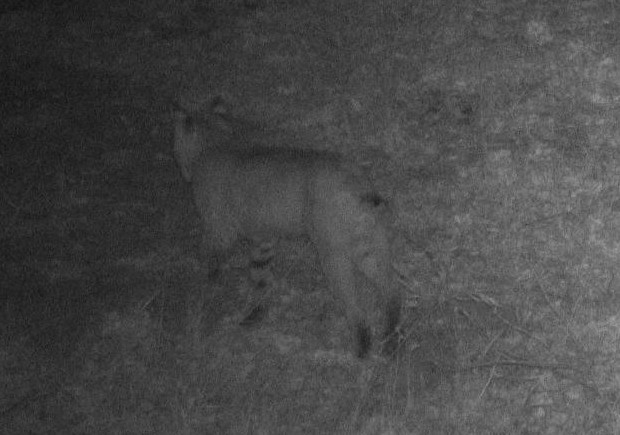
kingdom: Animalia
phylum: Chordata
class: Mammalia
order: Carnivora
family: Felidae
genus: Lynx
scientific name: Lynx rufus
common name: Bobcat
